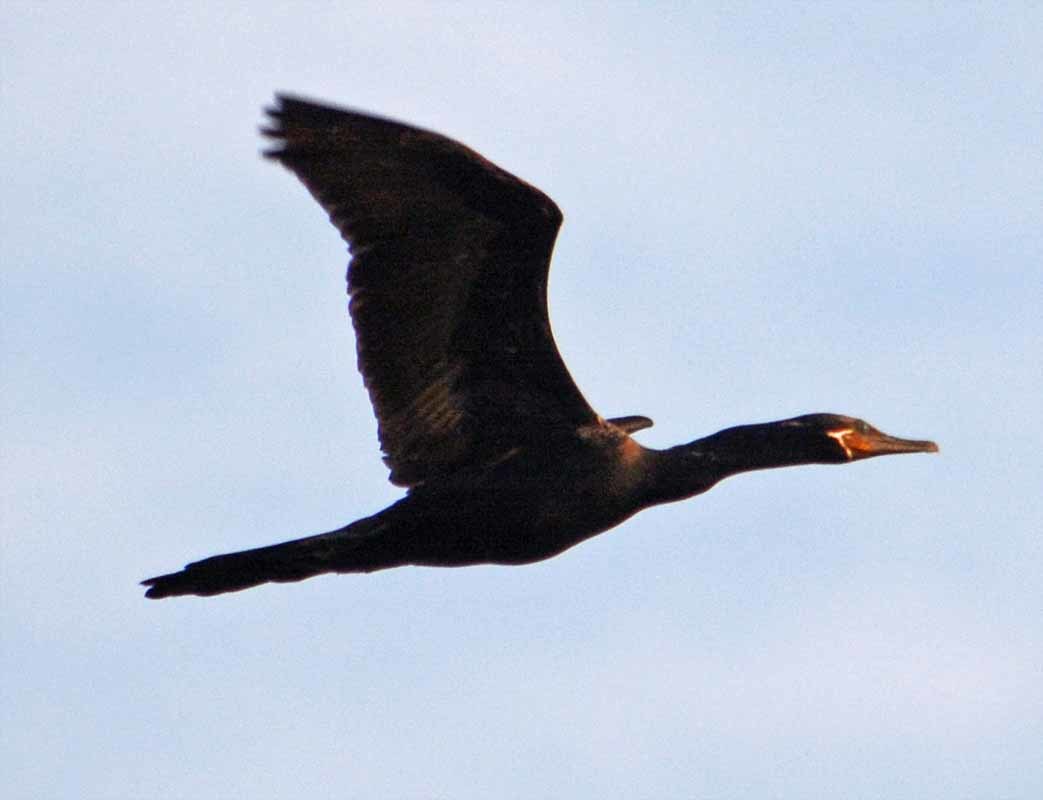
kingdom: Animalia
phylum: Chordata
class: Aves
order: Suliformes
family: Phalacrocoracidae
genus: Phalacrocorax
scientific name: Phalacrocorax brasilianus
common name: Neotropic cormorant
